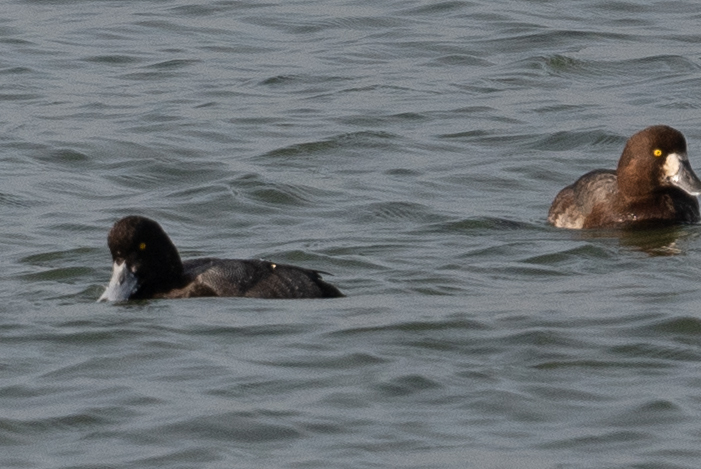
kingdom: Animalia
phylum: Chordata
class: Aves
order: Anseriformes
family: Anatidae
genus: Aythya
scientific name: Aythya marila
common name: Greater scaup
